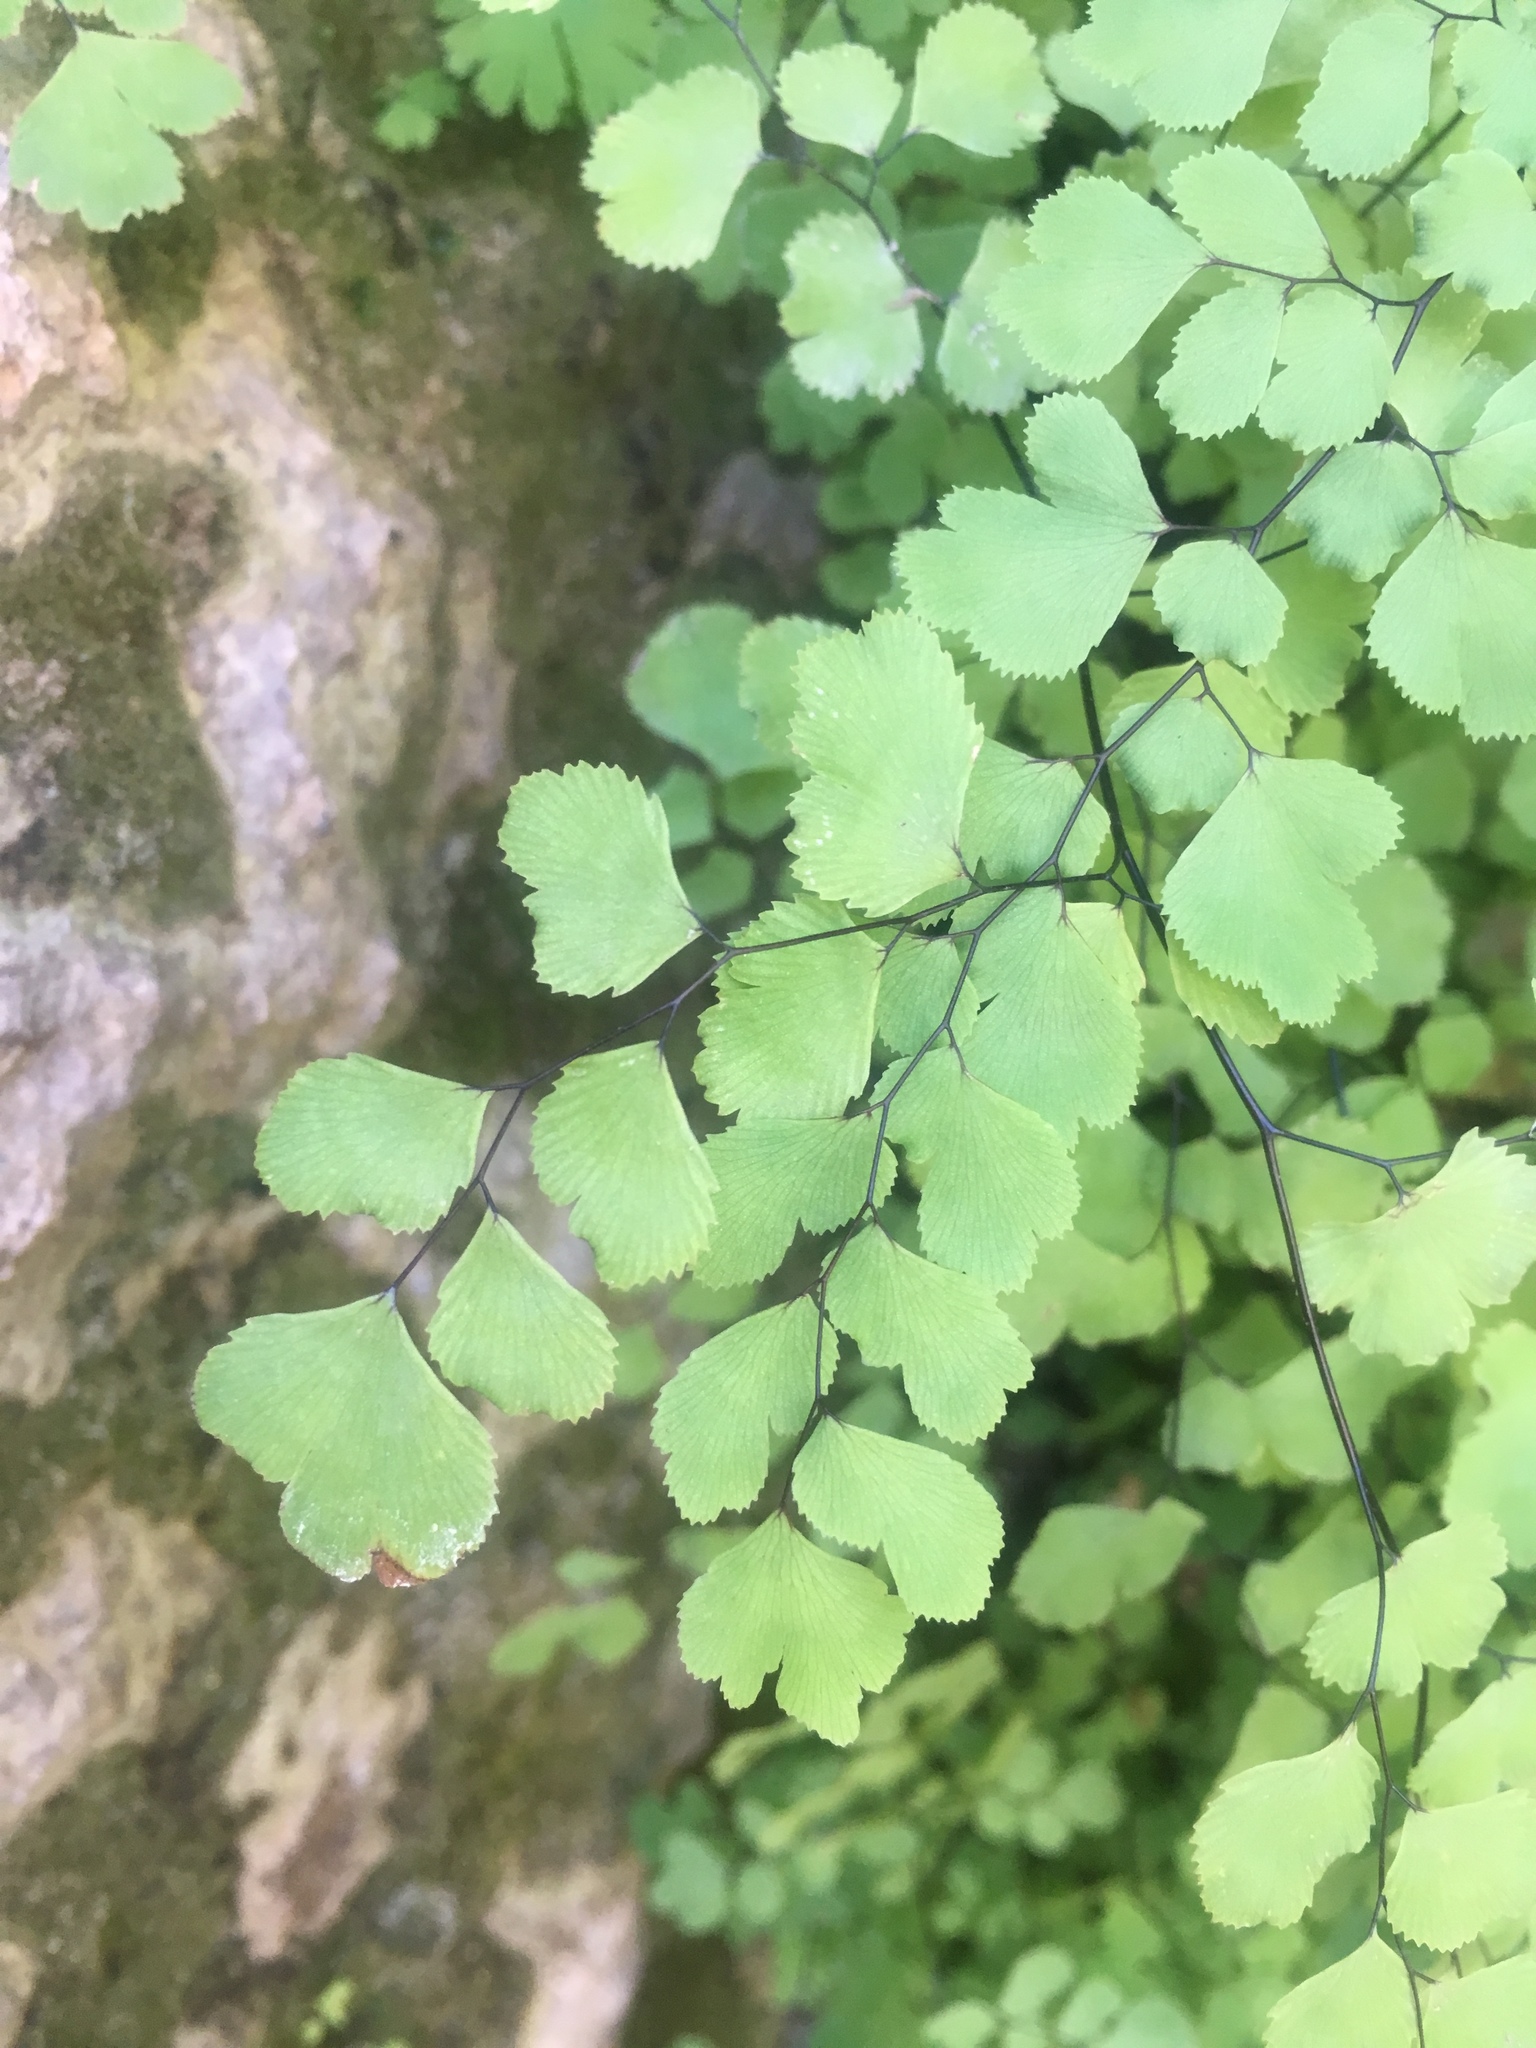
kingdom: Plantae
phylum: Tracheophyta
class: Polypodiopsida
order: Polypodiales
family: Pteridaceae
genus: Adiantum
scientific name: Adiantum capillus-veneris
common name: Maidenhair fern
